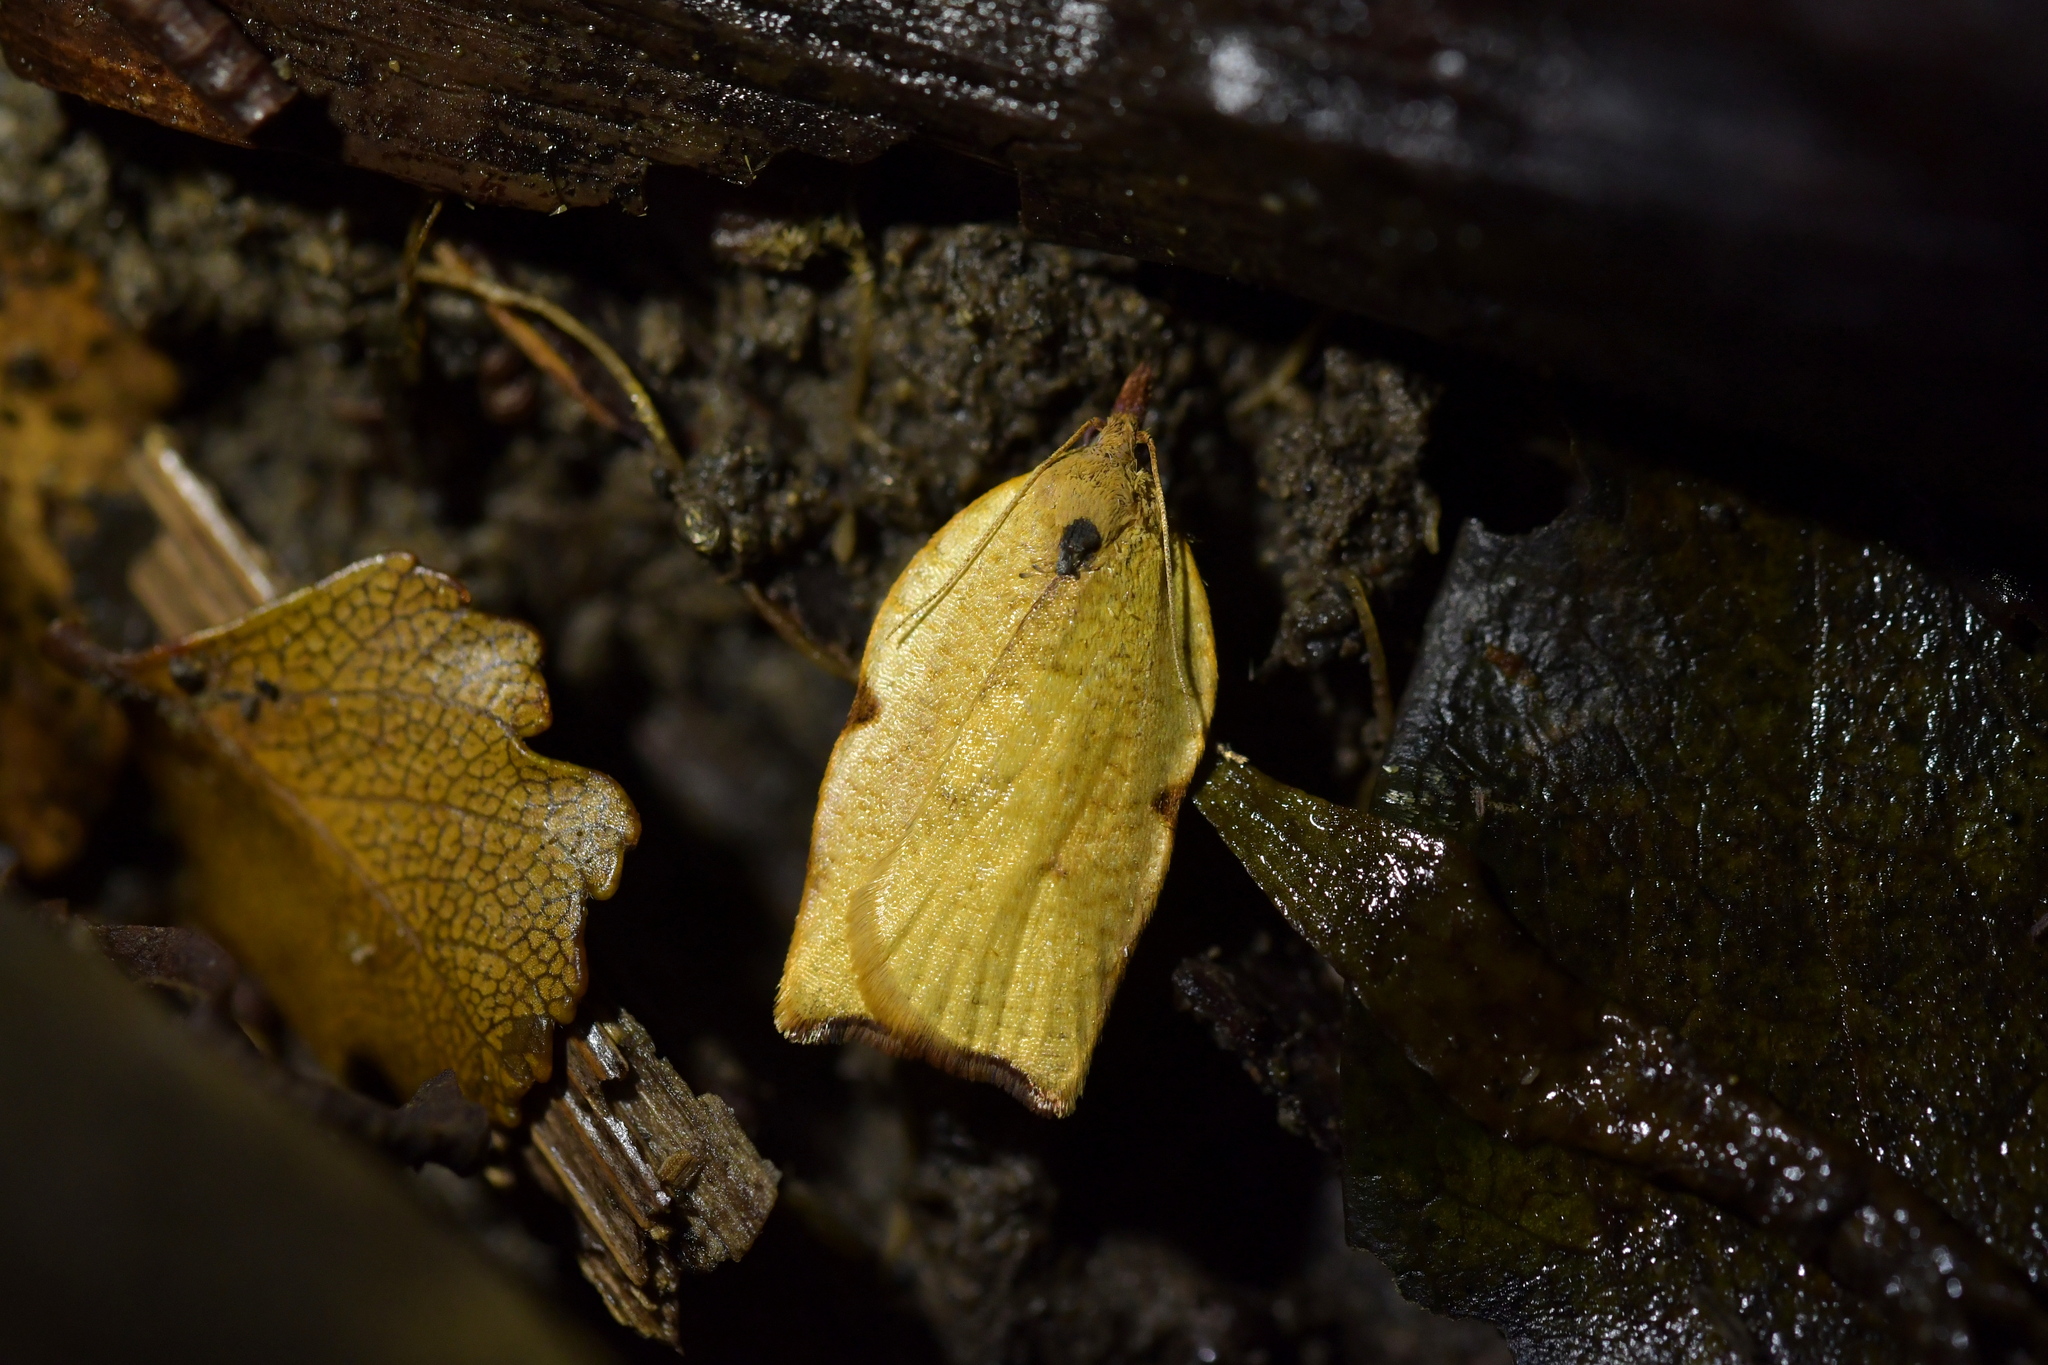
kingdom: Animalia
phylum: Arthropoda
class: Insecta
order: Lepidoptera
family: Tortricidae
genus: Apoctena
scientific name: Apoctena flavescens
